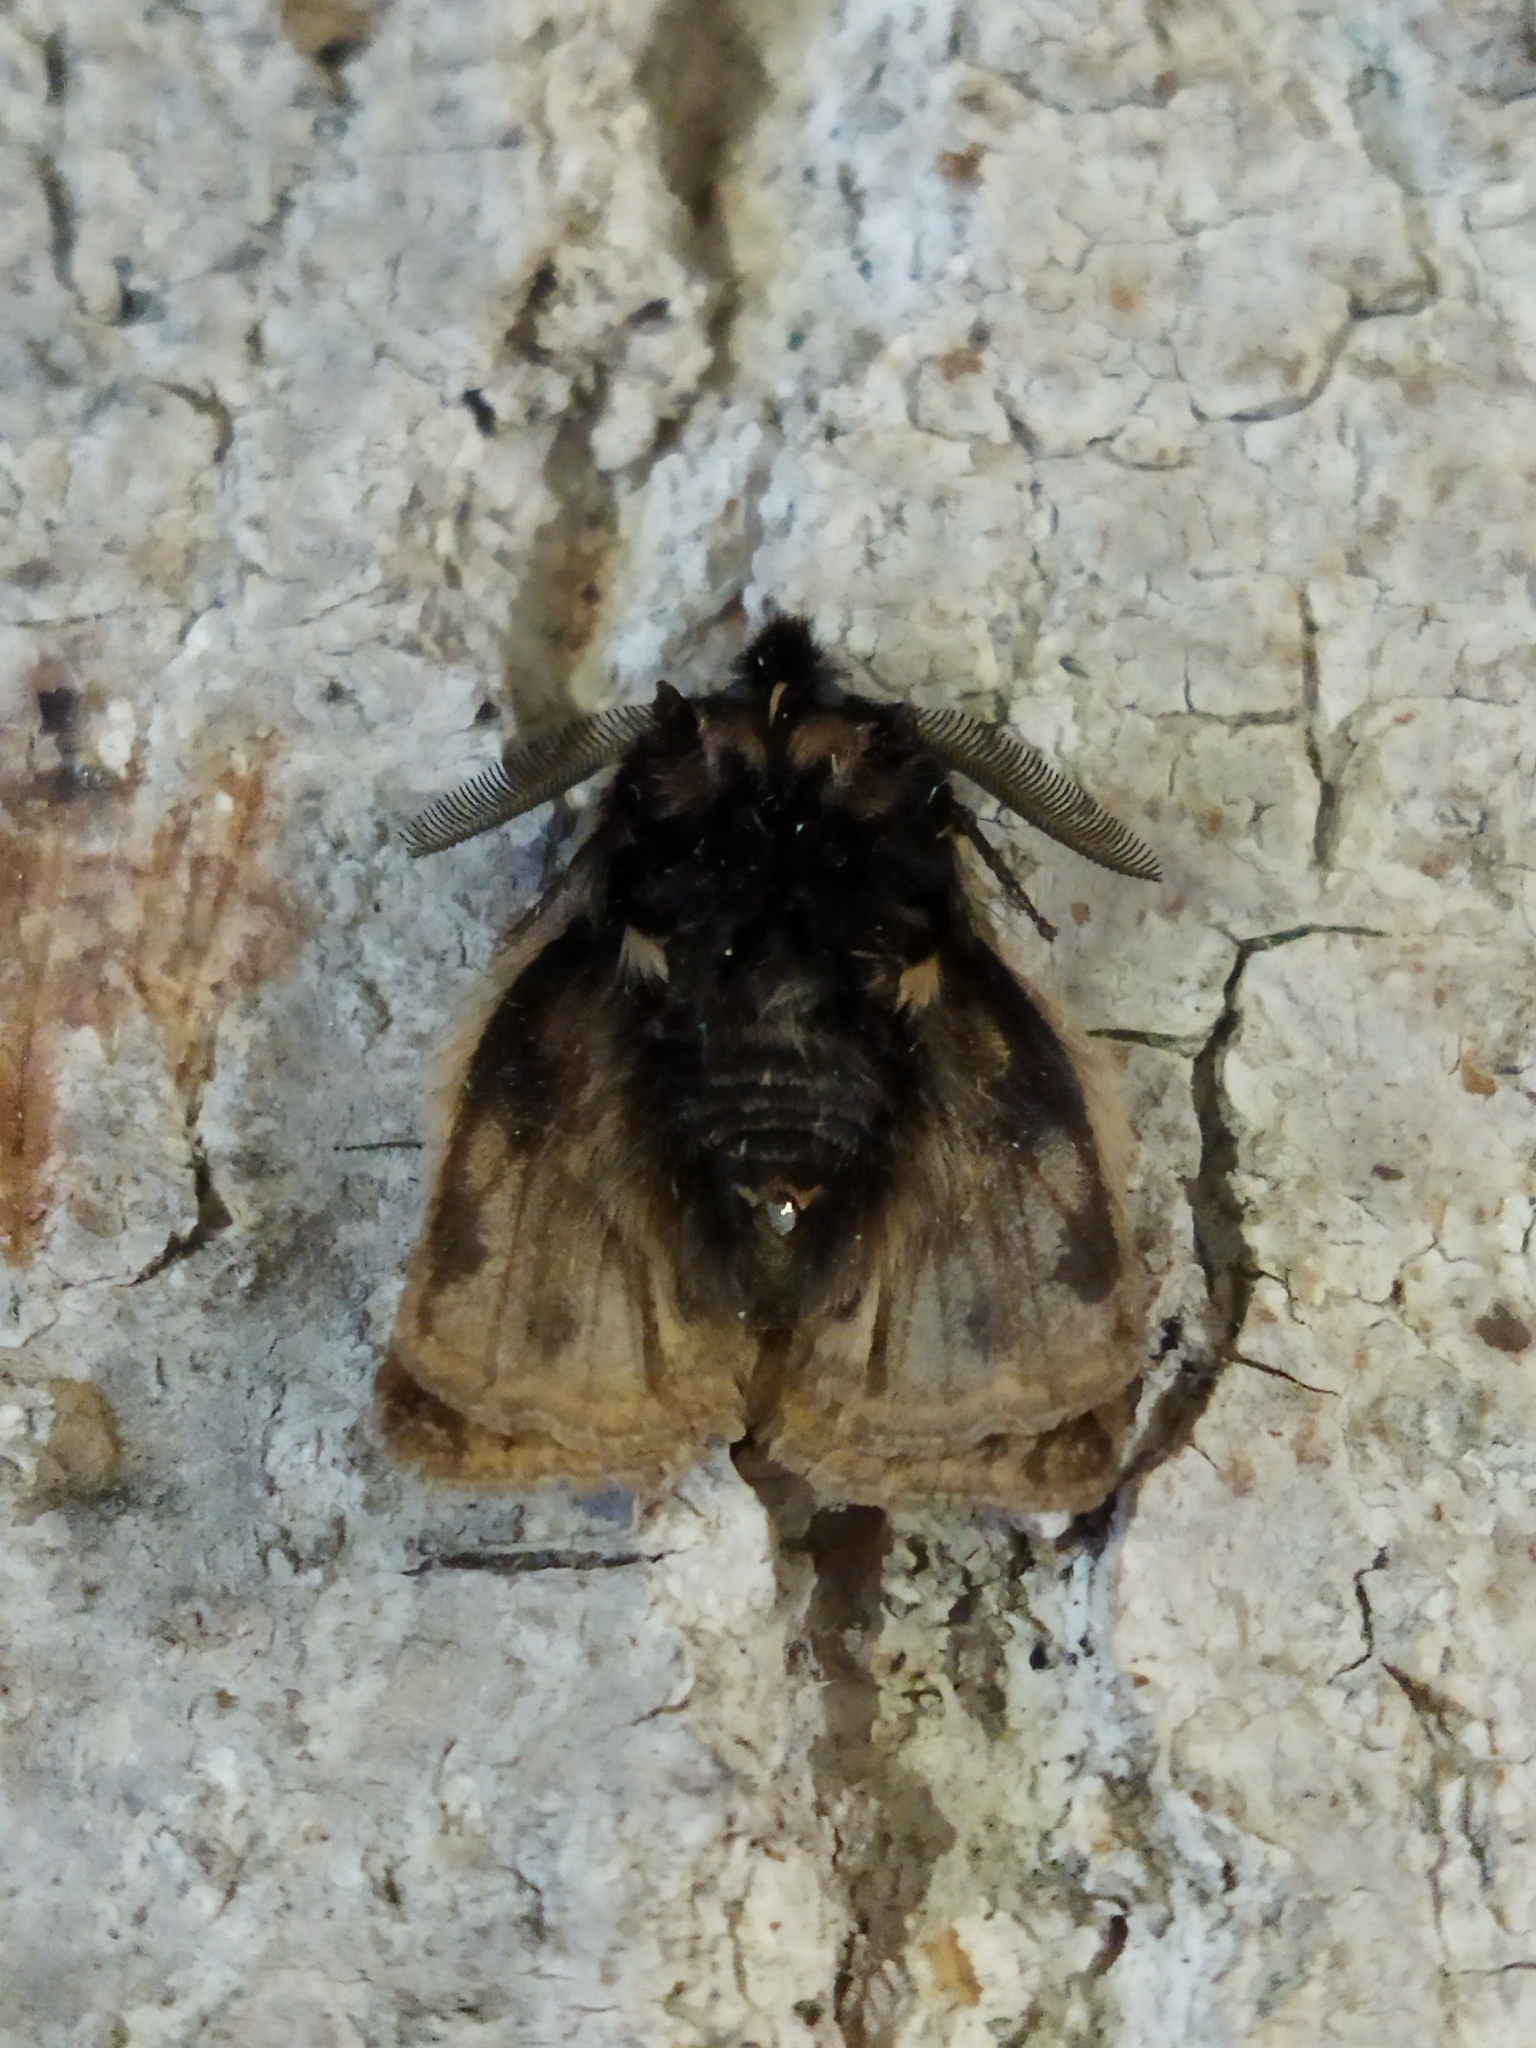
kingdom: Animalia
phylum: Arthropoda
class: Insecta
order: Lepidoptera
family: Erebidae
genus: Ocnogyna
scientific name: Ocnogyna parasita
